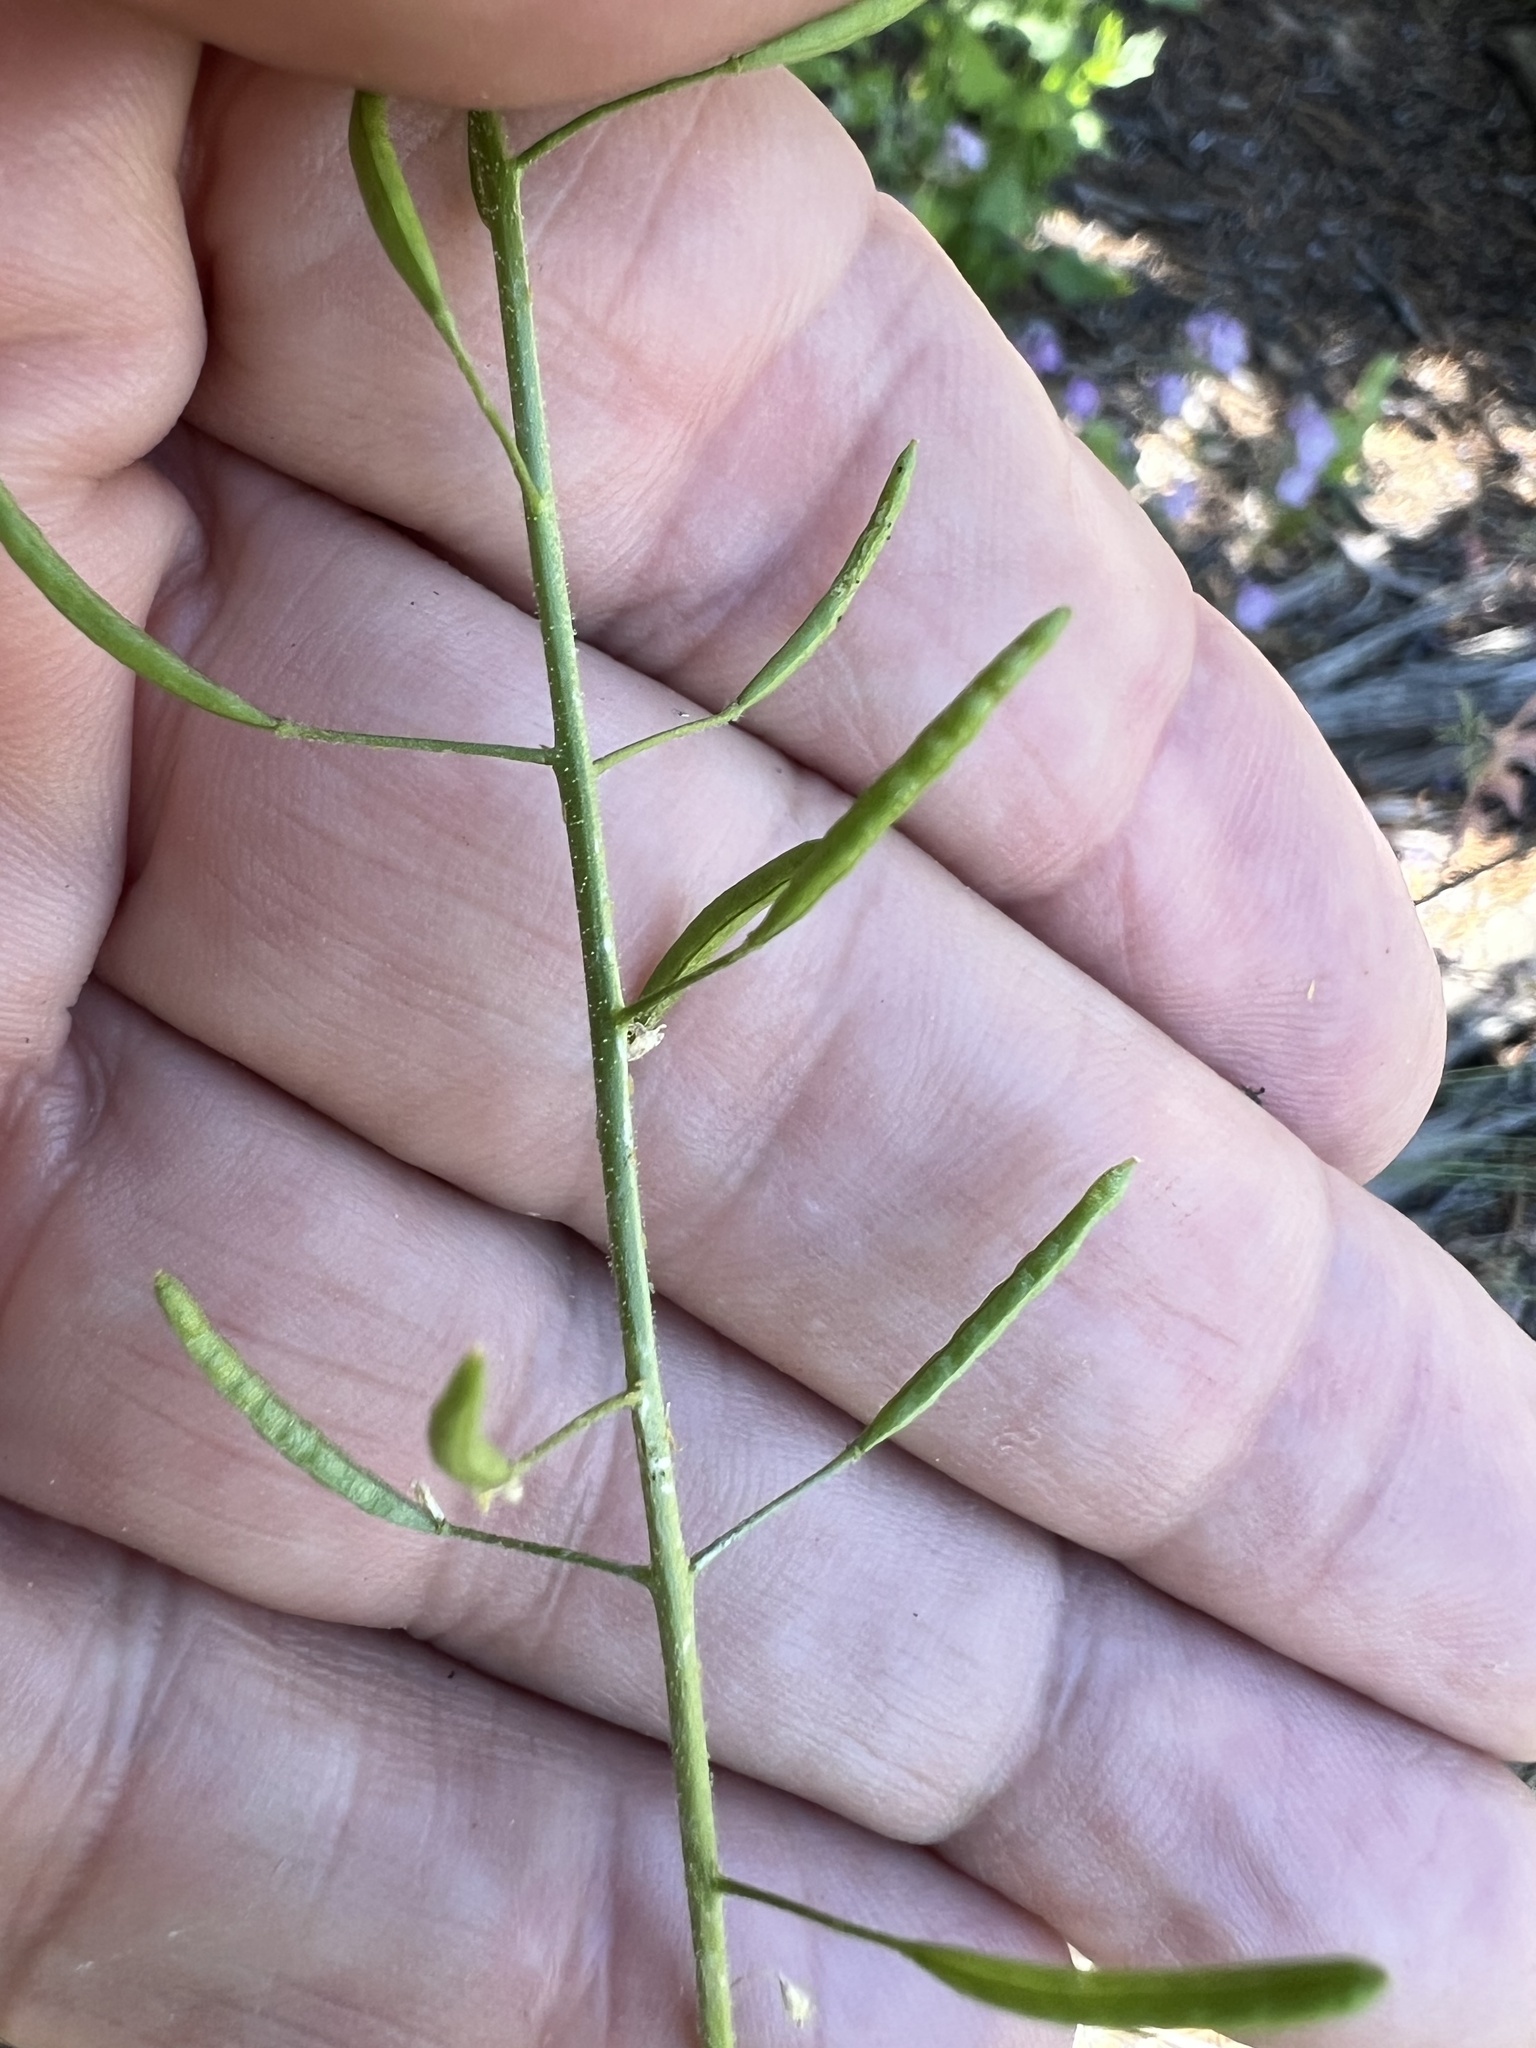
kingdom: Plantae
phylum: Tracheophyta
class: Magnoliopsida
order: Brassicales
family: Brassicaceae
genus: Descurainia
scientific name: Descurainia pinnata
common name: Western tansy mustard
